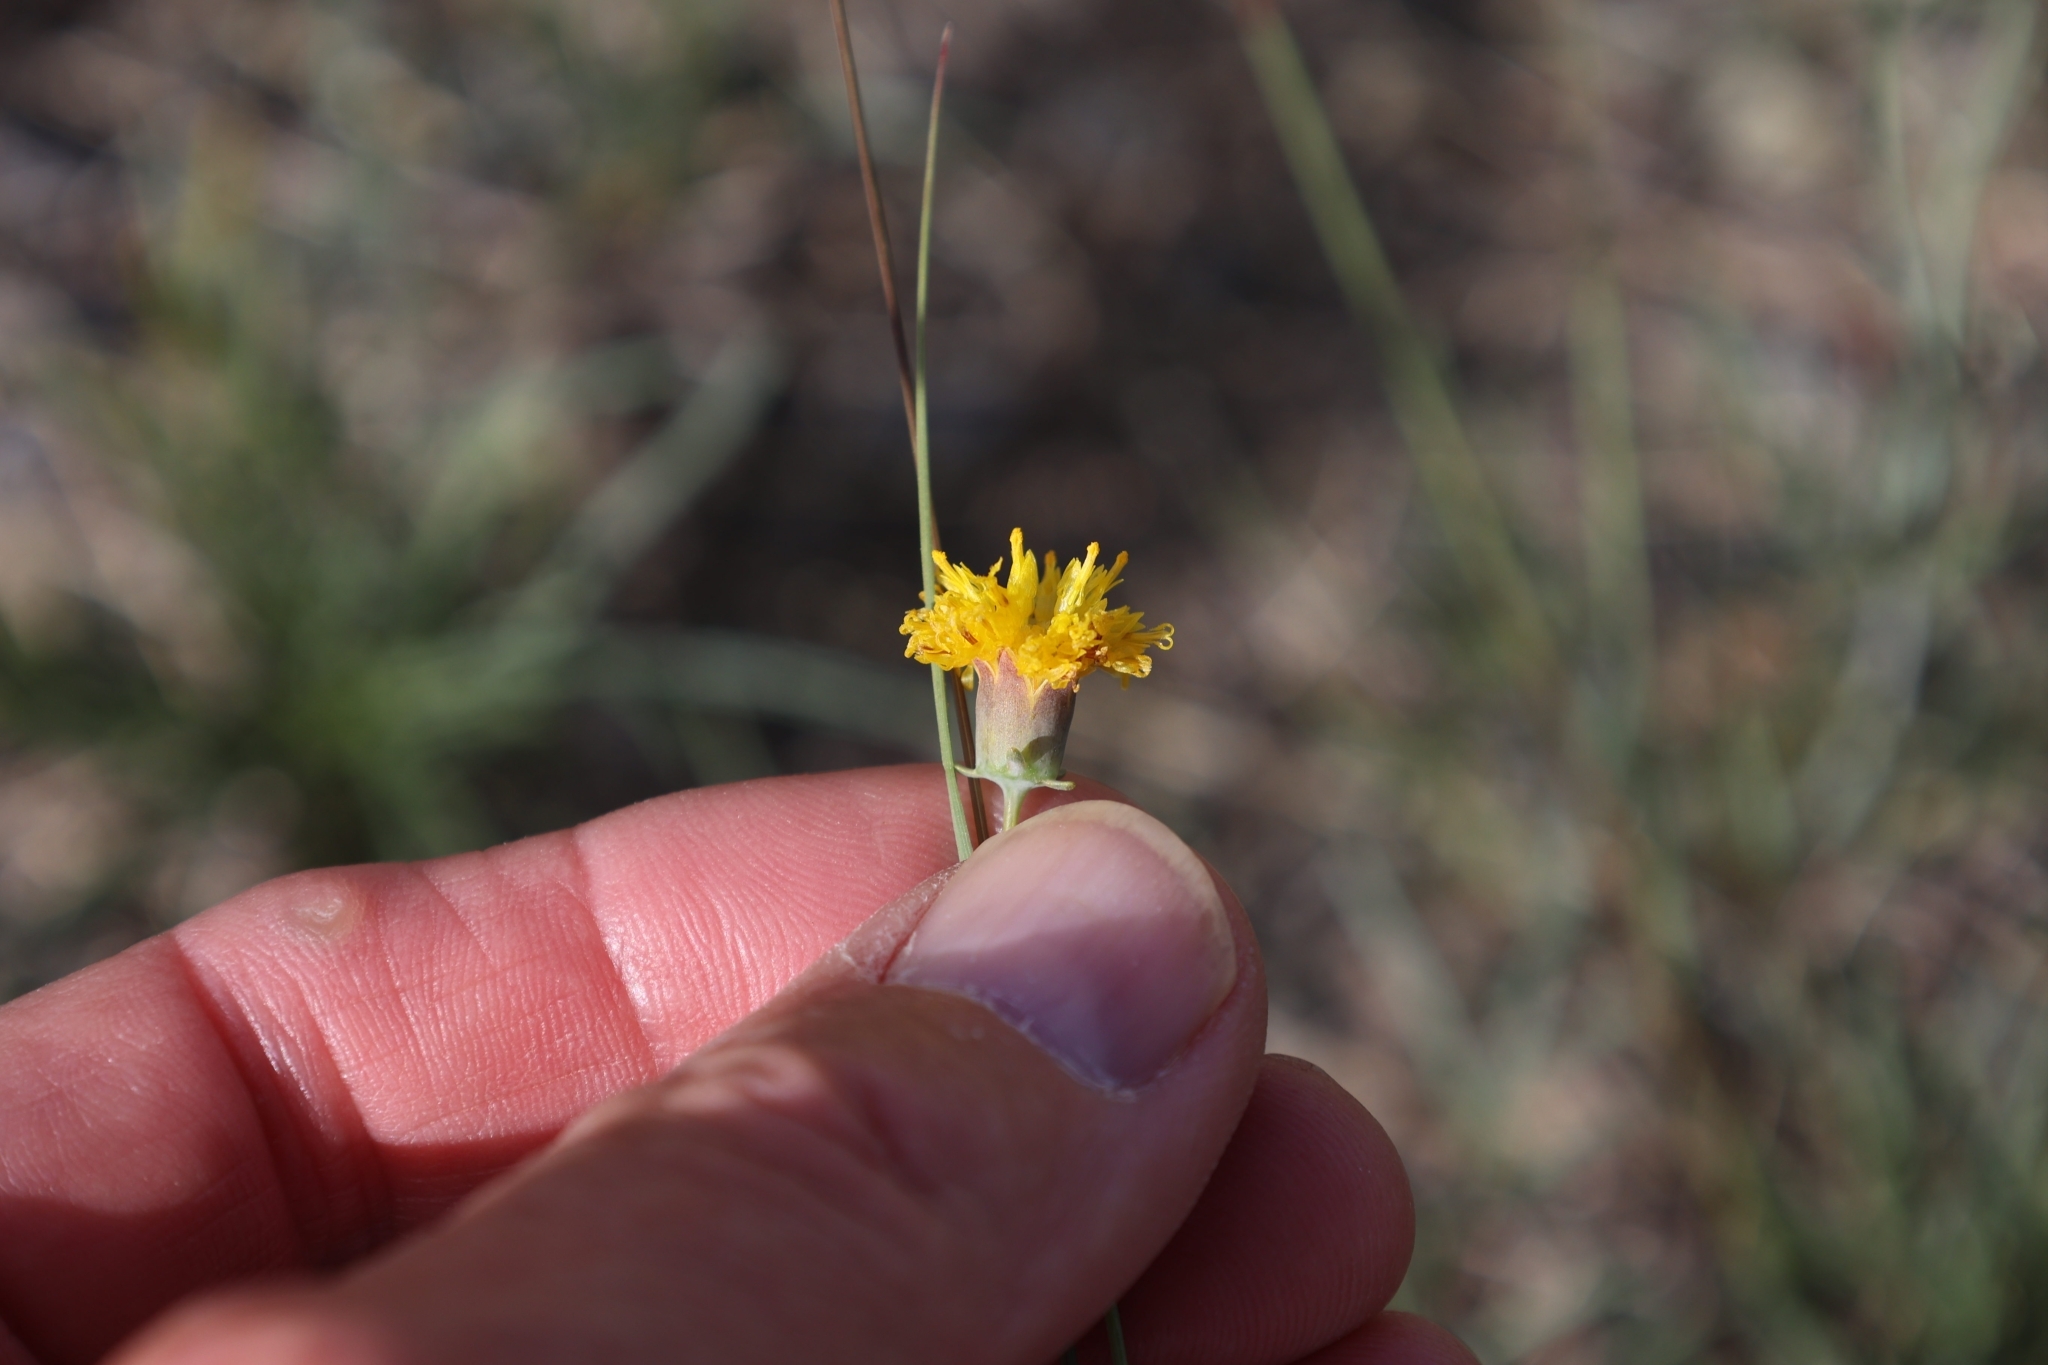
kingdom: Plantae
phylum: Tracheophyta
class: Magnoliopsida
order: Asterales
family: Asteraceae
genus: Thelesperma
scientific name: Thelesperma megapotamicum
